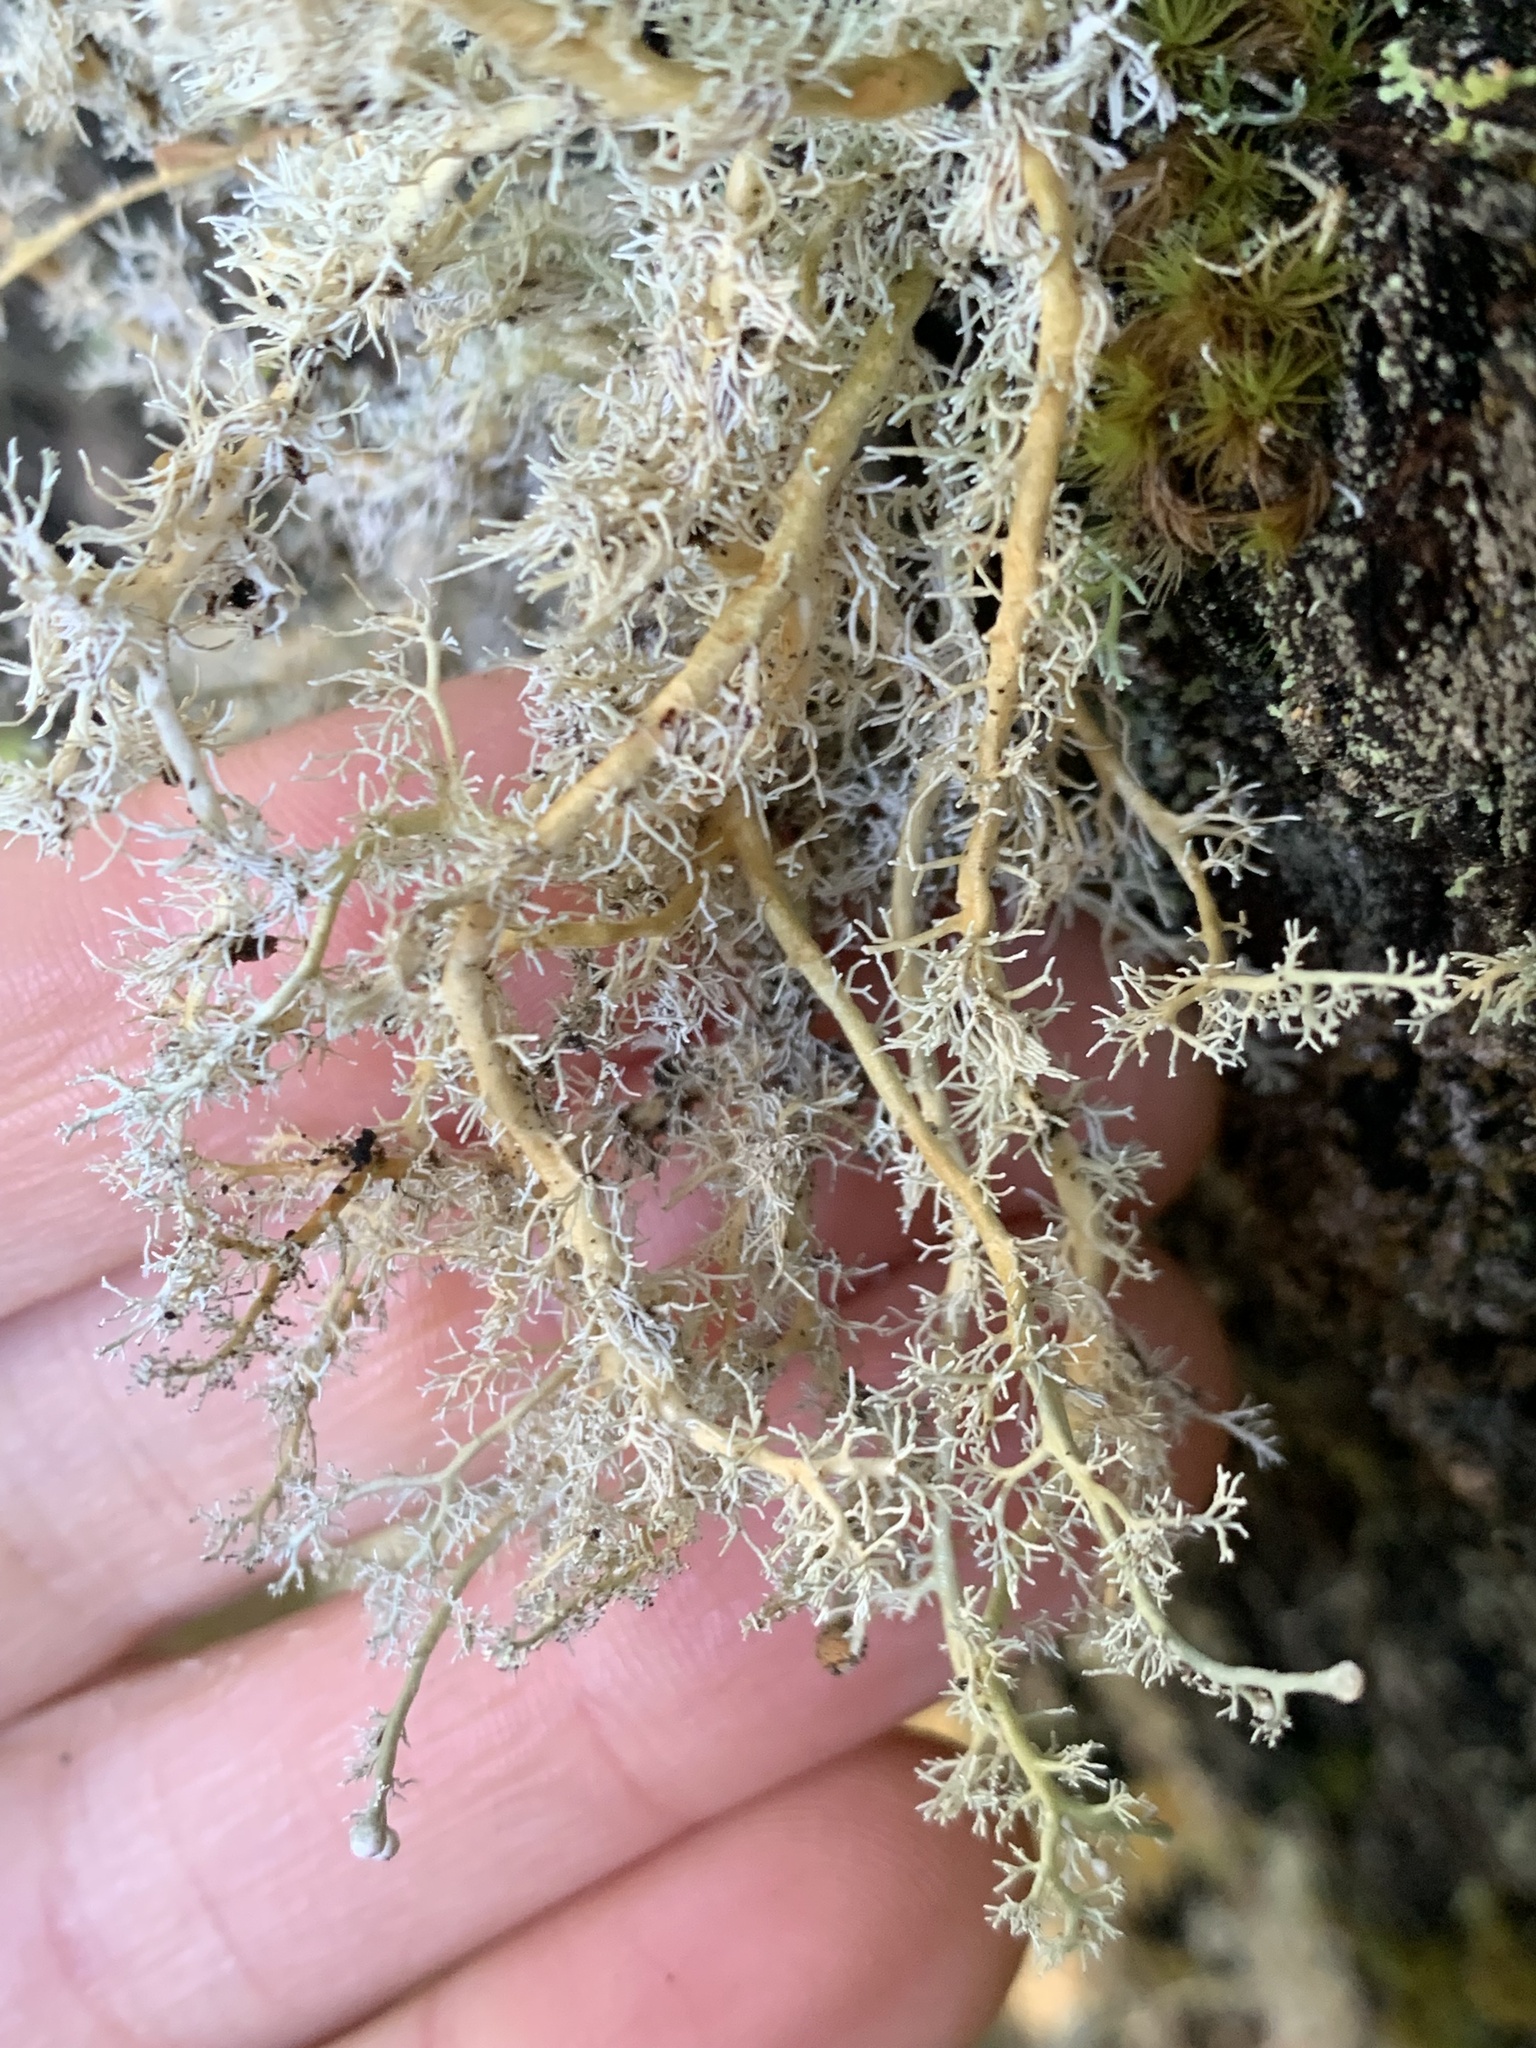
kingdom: Fungi
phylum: Ascomycota
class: Lecanoromycetes
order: Lecanorales
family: Sphaerophoraceae
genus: Sphaerophorus
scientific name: Sphaerophorus globosus
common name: Globe ball lichen
